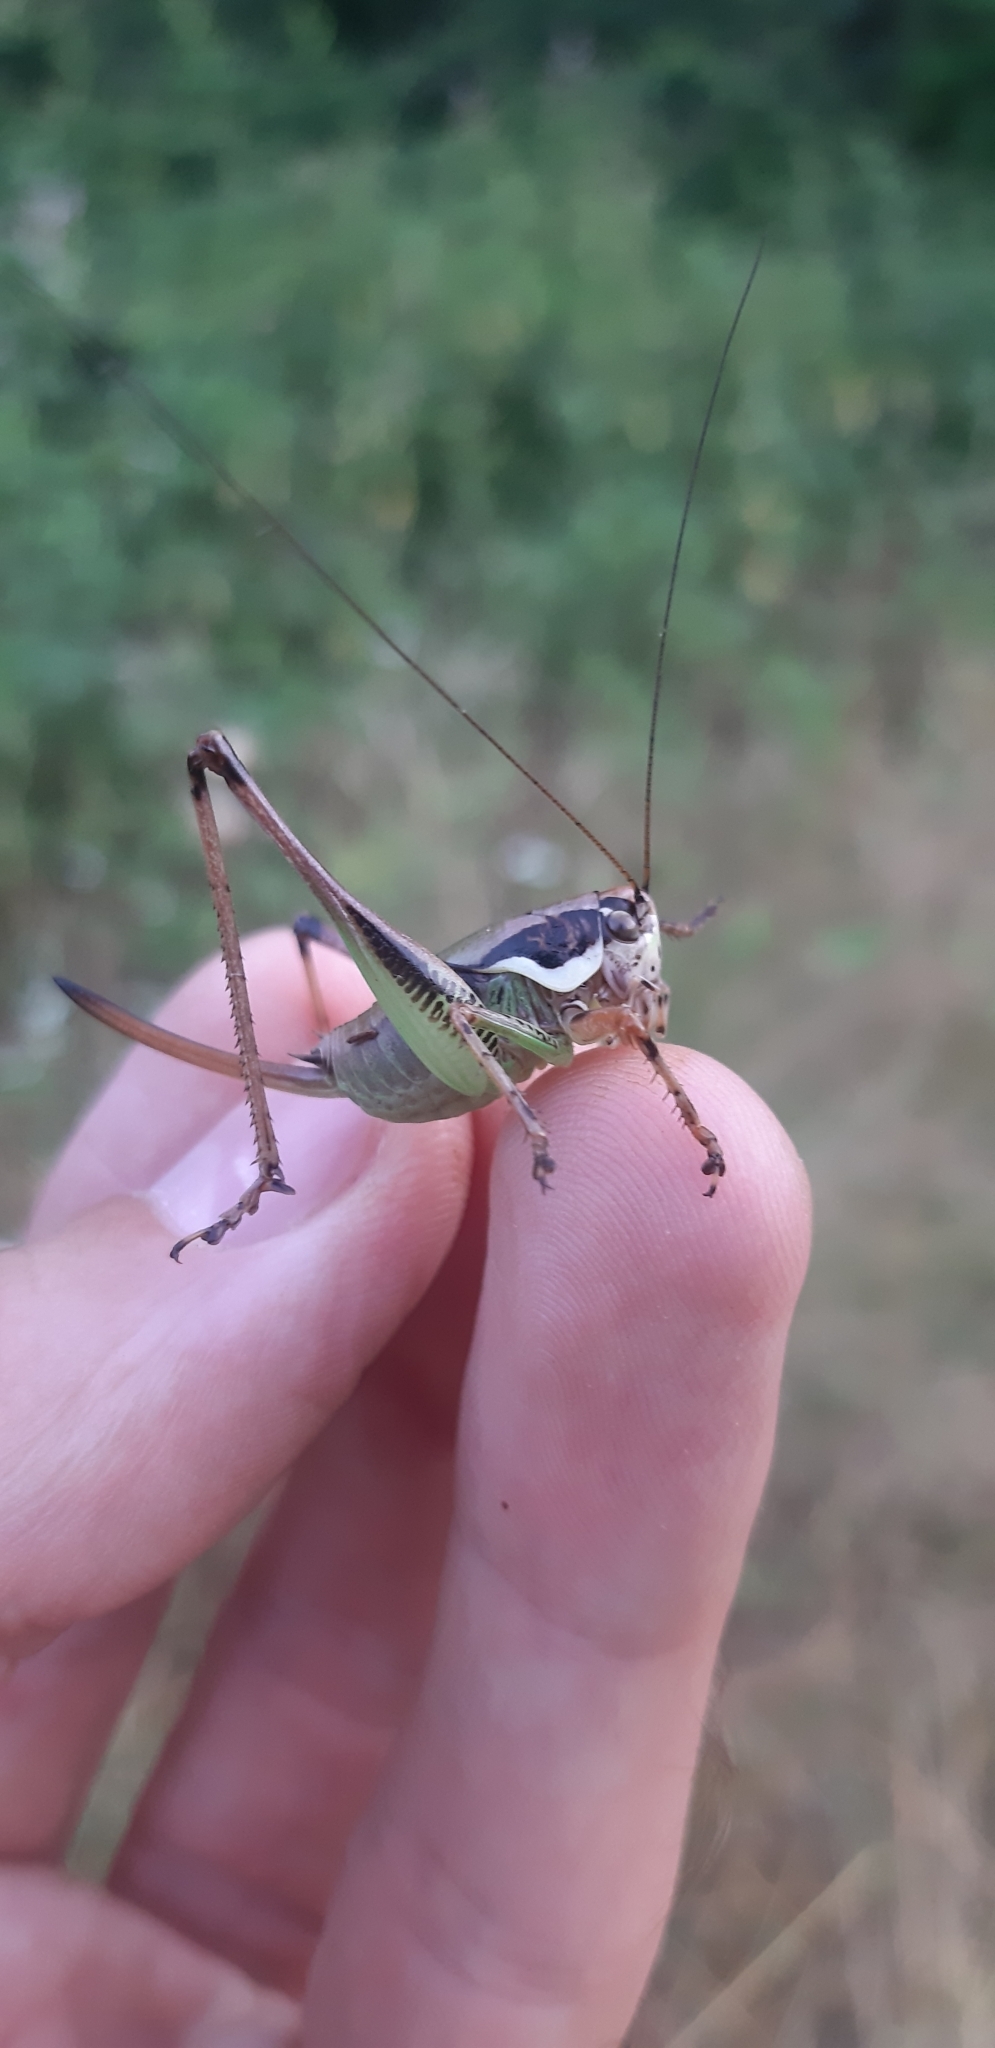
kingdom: Animalia
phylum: Arthropoda
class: Insecta
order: Orthoptera
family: Tettigoniidae
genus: Eupholidoptera
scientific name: Eupholidoptera magnifica
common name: Splendid marbled bush-cricket
